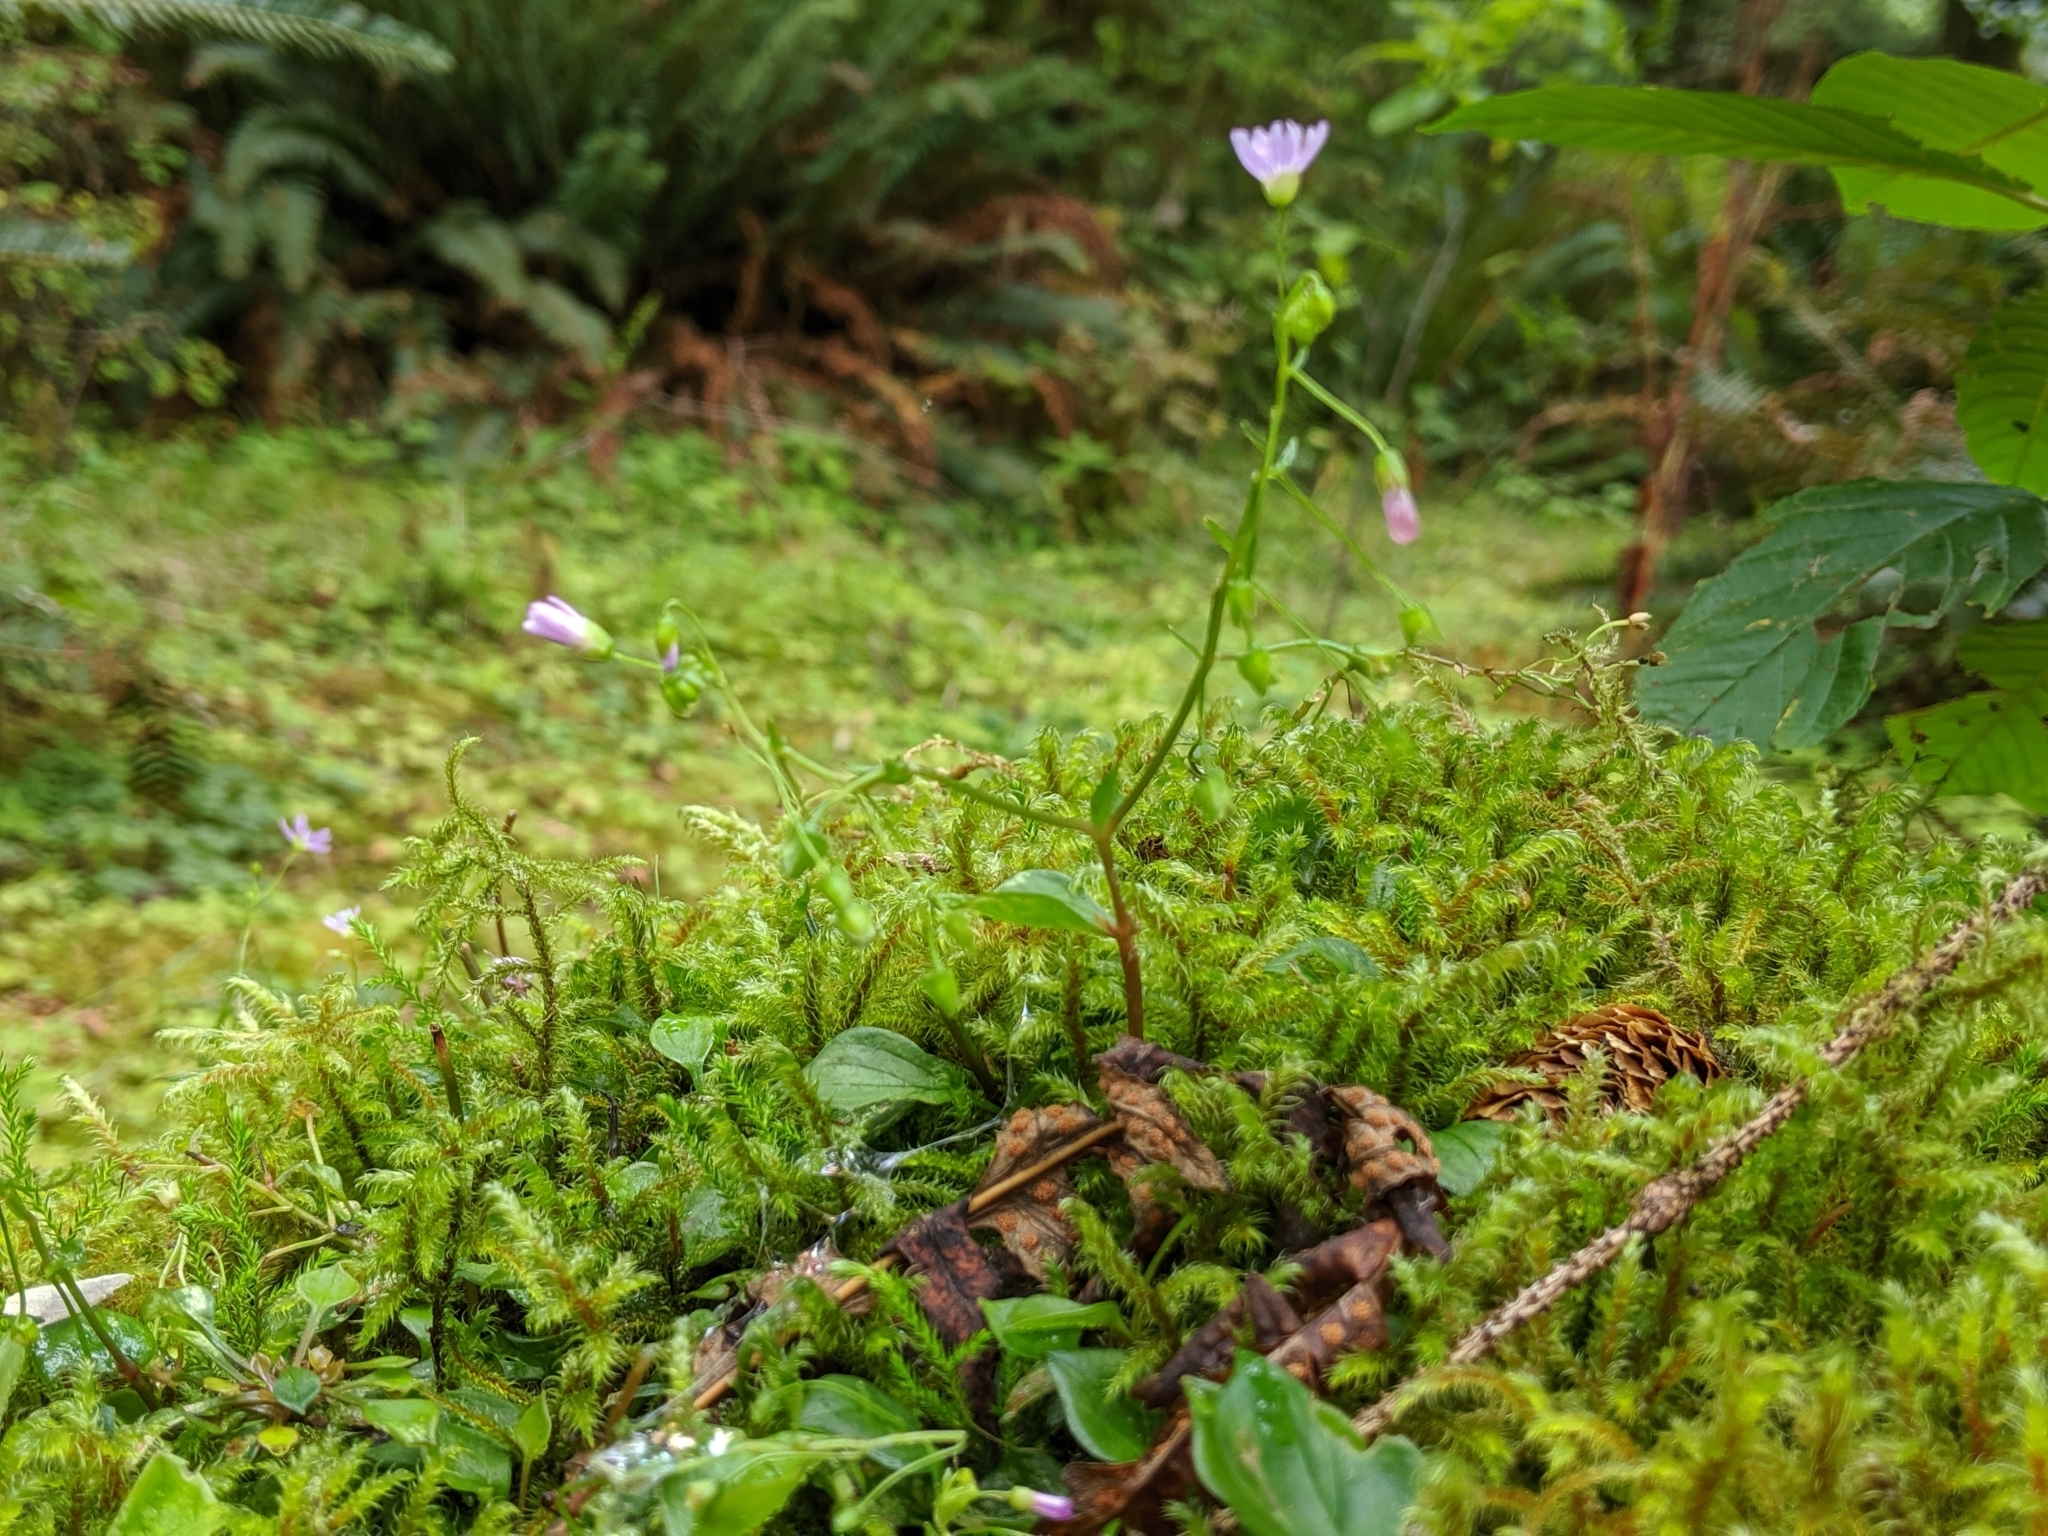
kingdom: Plantae
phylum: Tracheophyta
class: Magnoliopsida
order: Caryophyllales
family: Montiaceae
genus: Claytonia
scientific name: Claytonia sibirica
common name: Pink purslane
